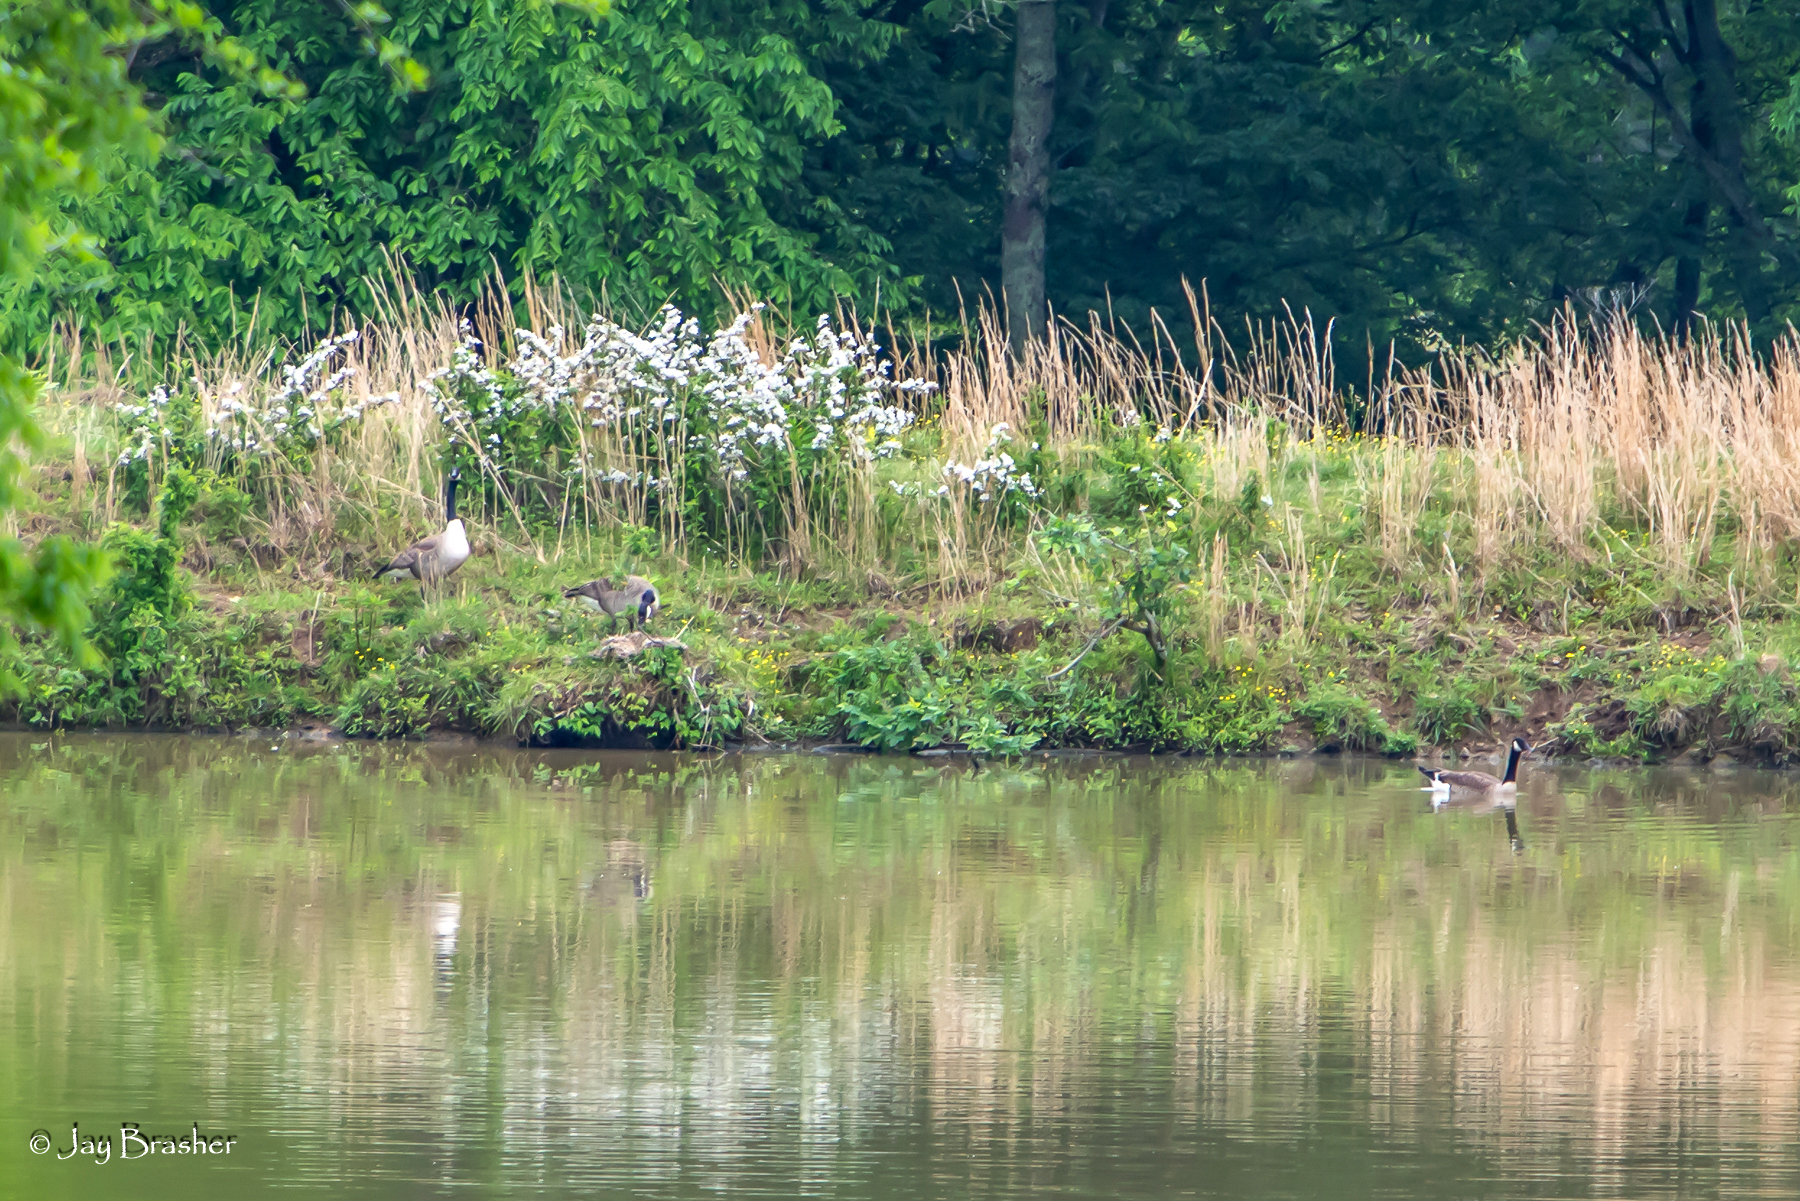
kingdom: Animalia
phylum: Chordata
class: Aves
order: Anseriformes
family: Anatidae
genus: Branta
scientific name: Branta canadensis
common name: Canada goose
